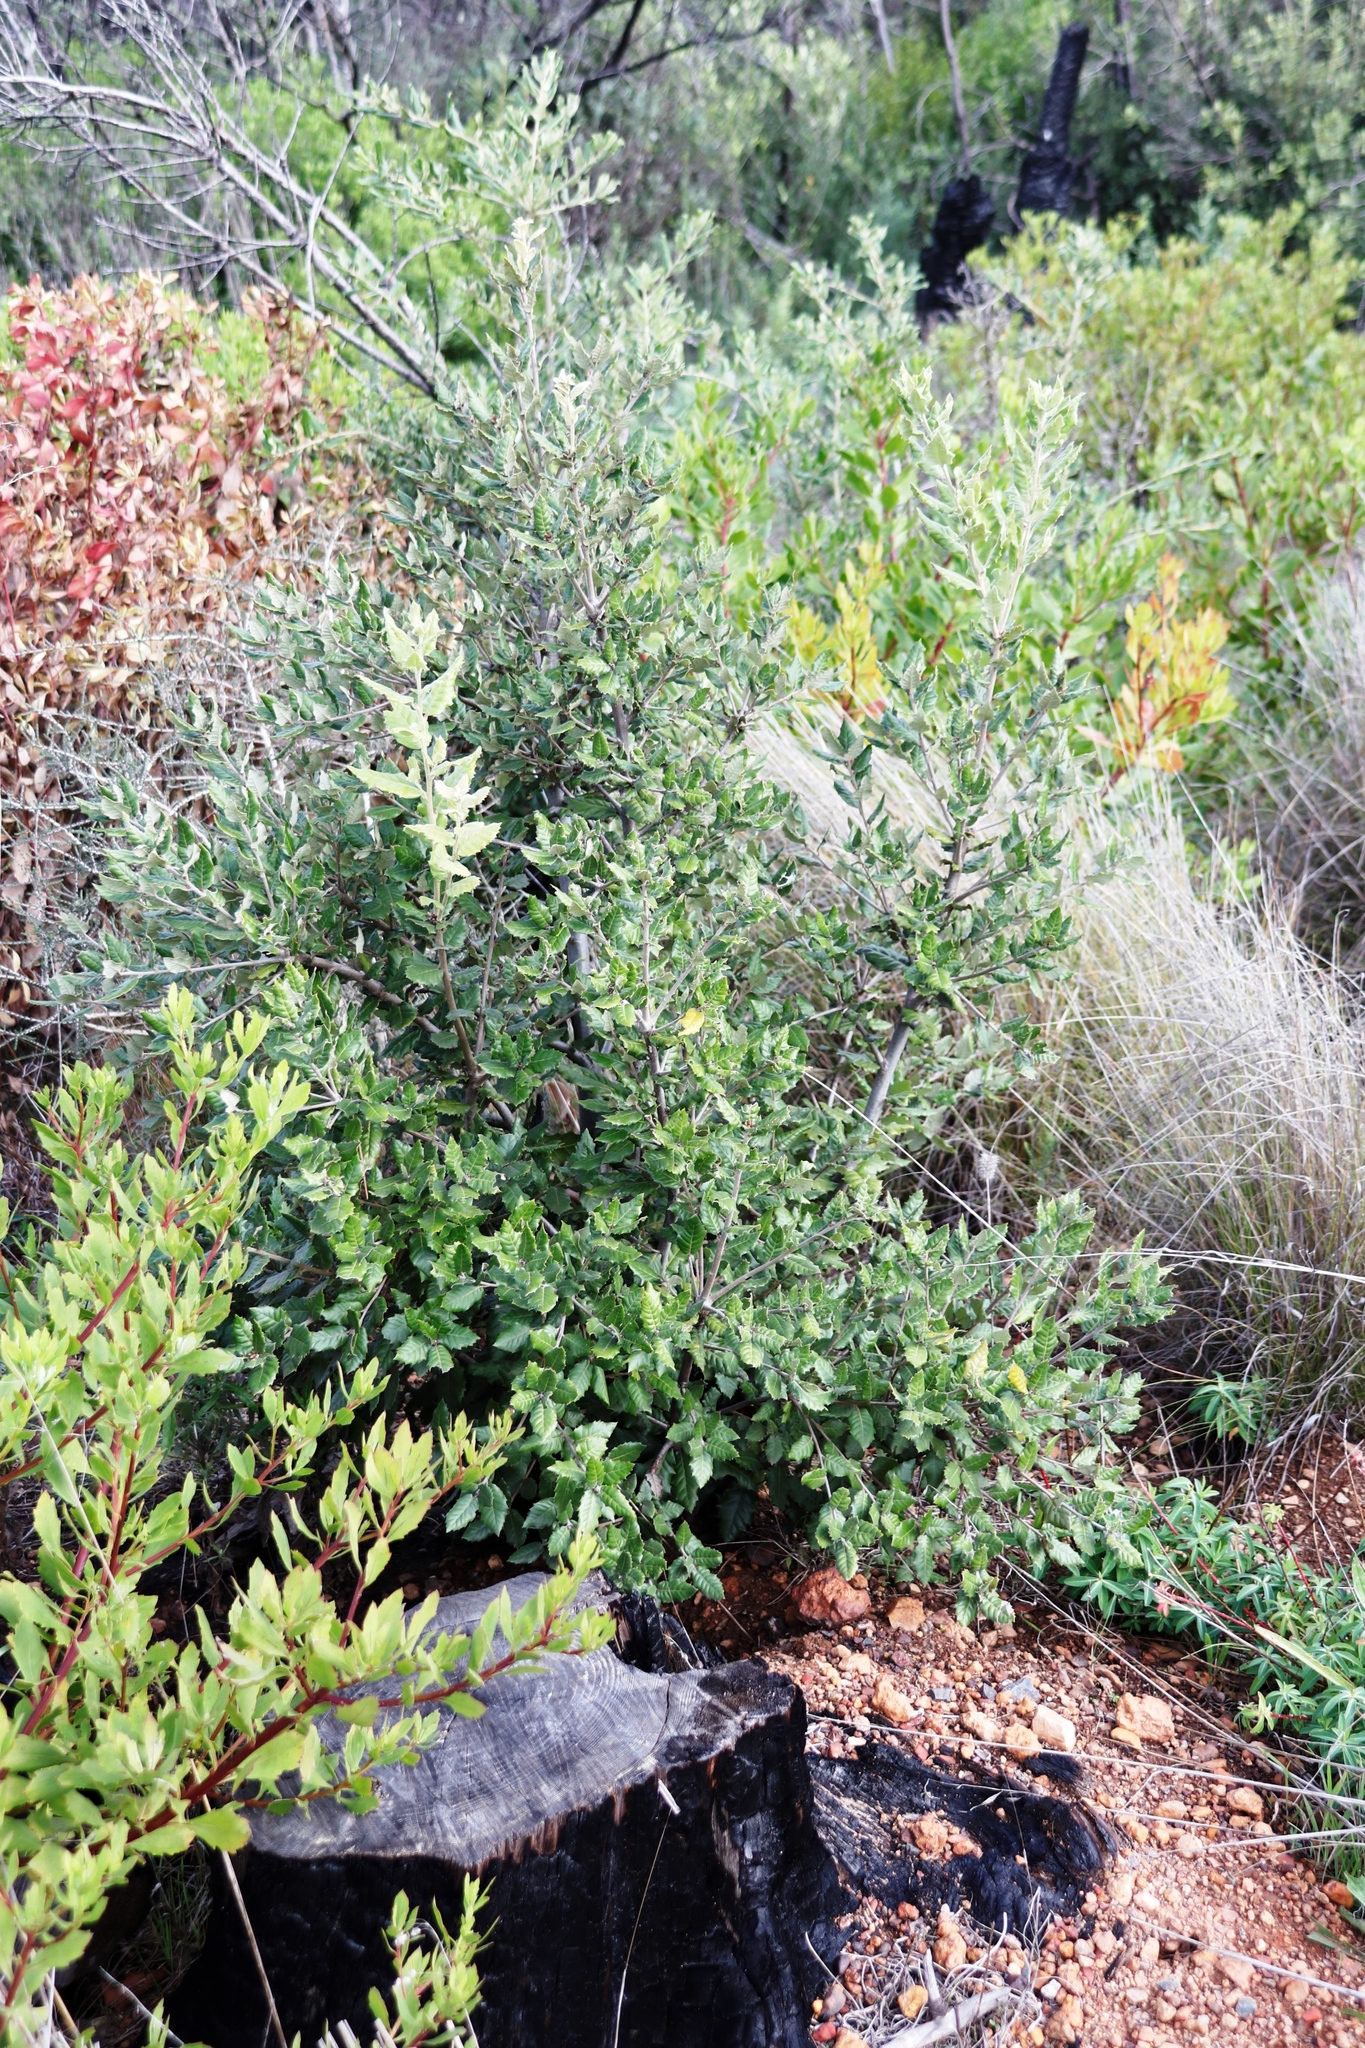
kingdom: Plantae
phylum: Tracheophyta
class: Magnoliopsida
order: Fagales
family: Fagaceae
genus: Quercus
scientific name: Quercus ilex
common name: Evergreen oak
